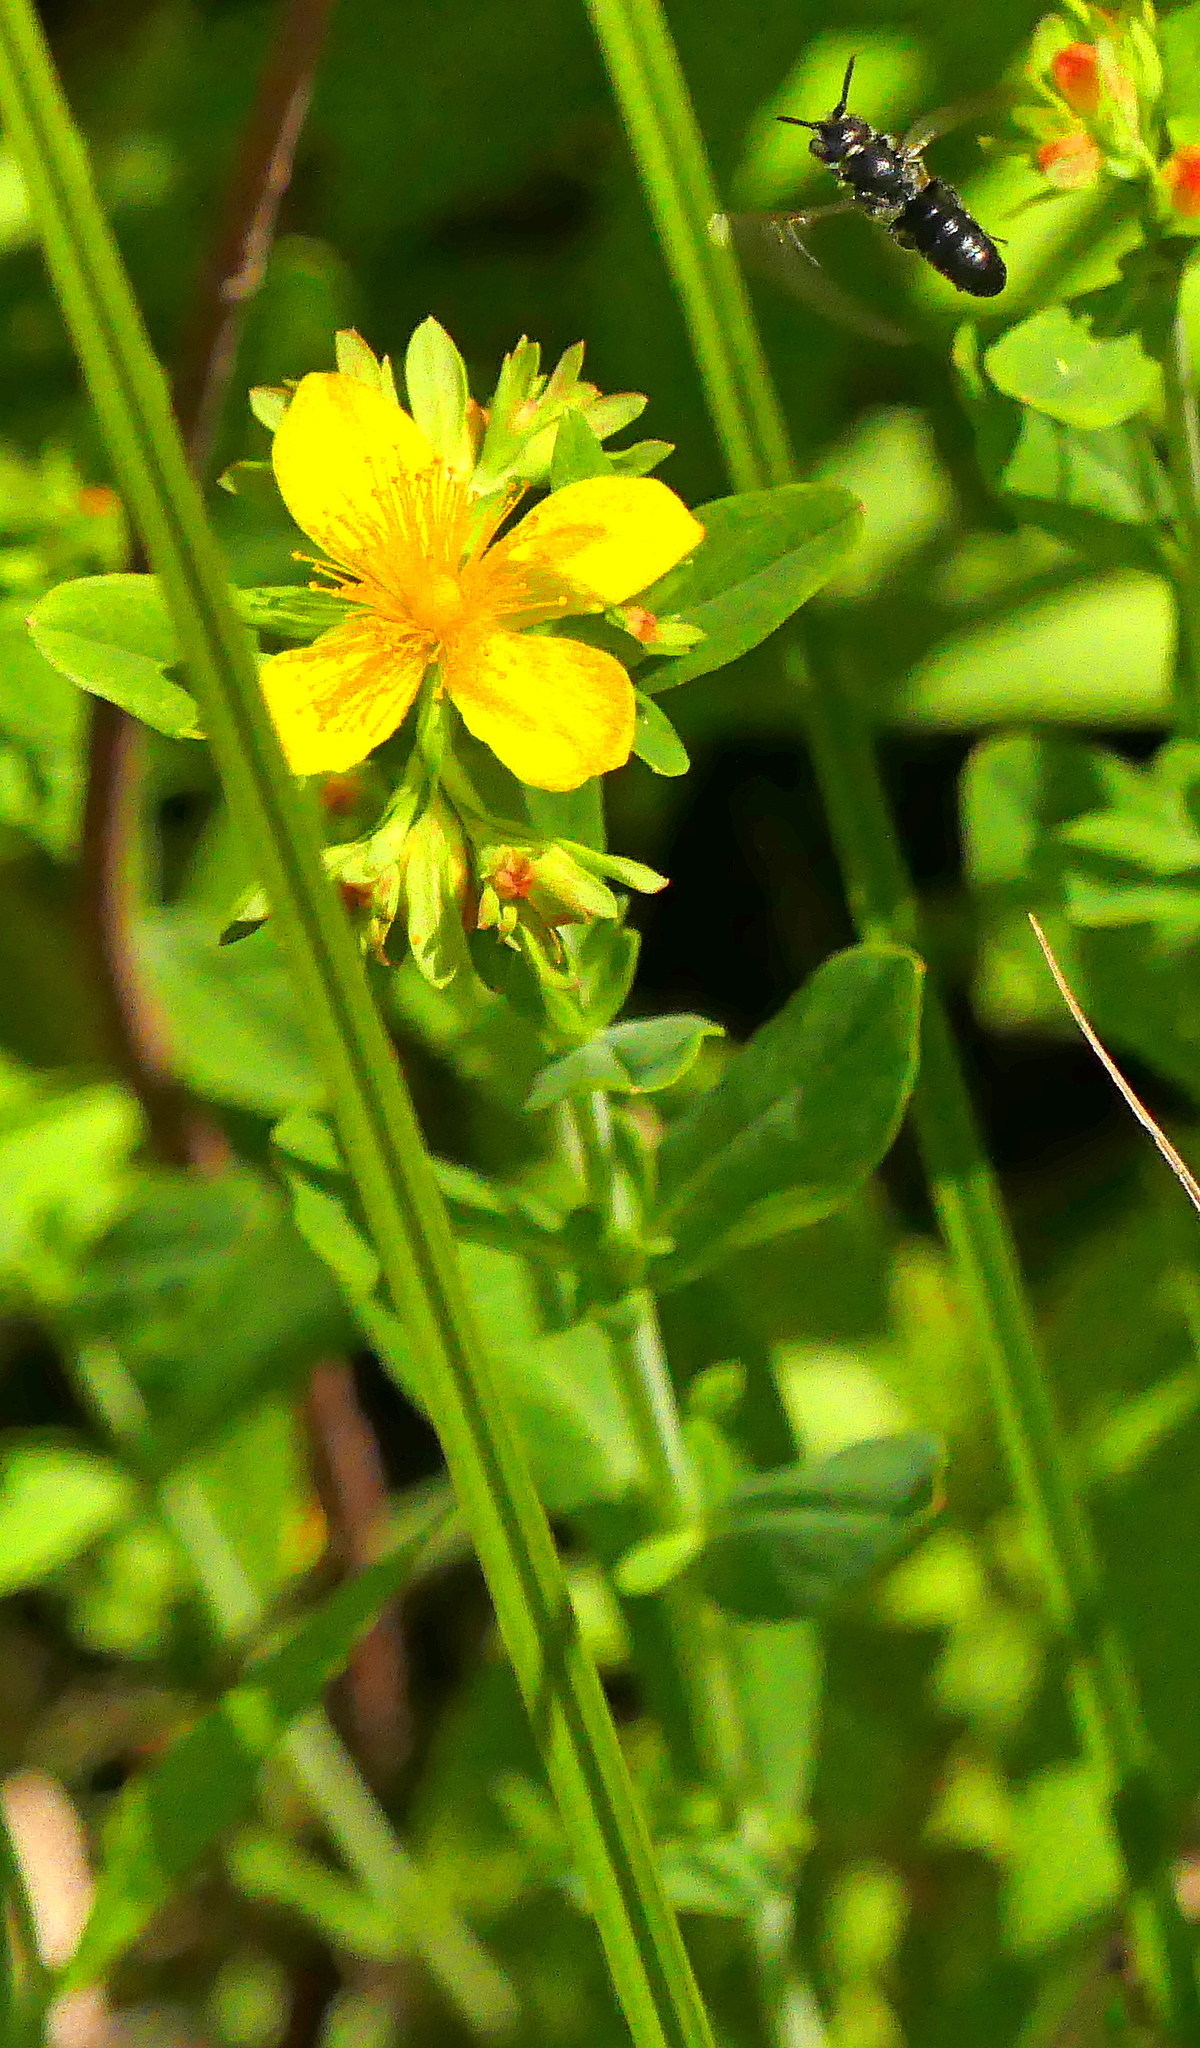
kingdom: Plantae
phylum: Tracheophyta
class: Magnoliopsida
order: Malpighiales
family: Hypericaceae
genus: Hypericum
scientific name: Hypericum ellipticum
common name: Elliptic st. john's-wort
